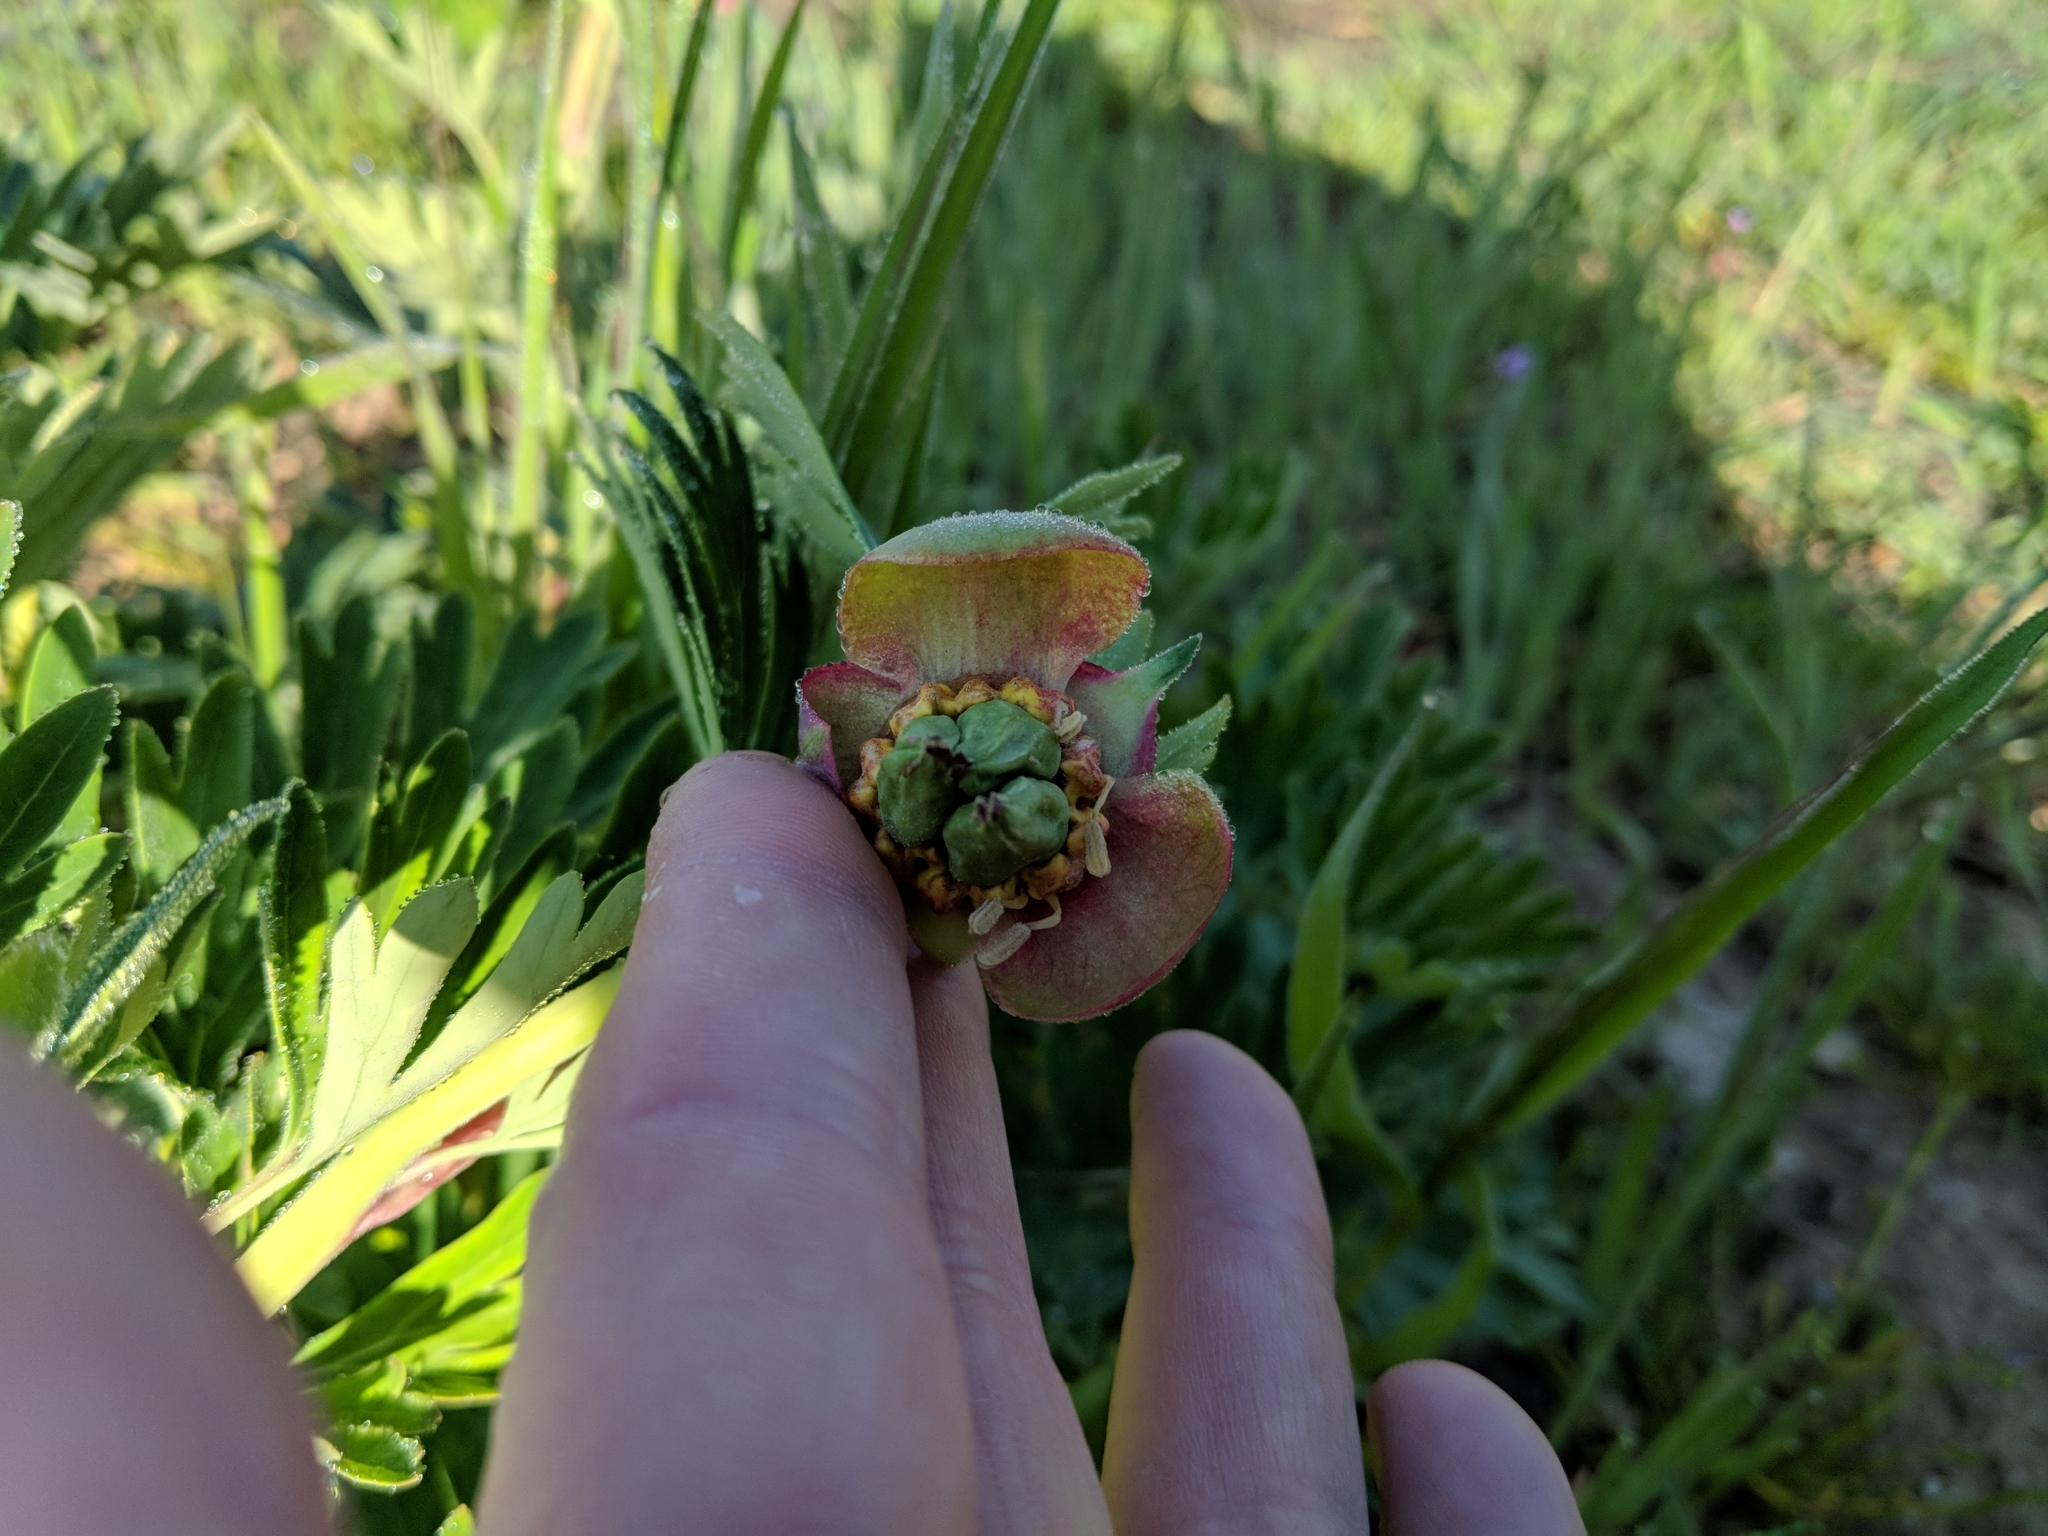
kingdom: Plantae
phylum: Tracheophyta
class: Magnoliopsida
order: Saxifragales
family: Paeoniaceae
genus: Paeonia
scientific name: Paeonia californica
